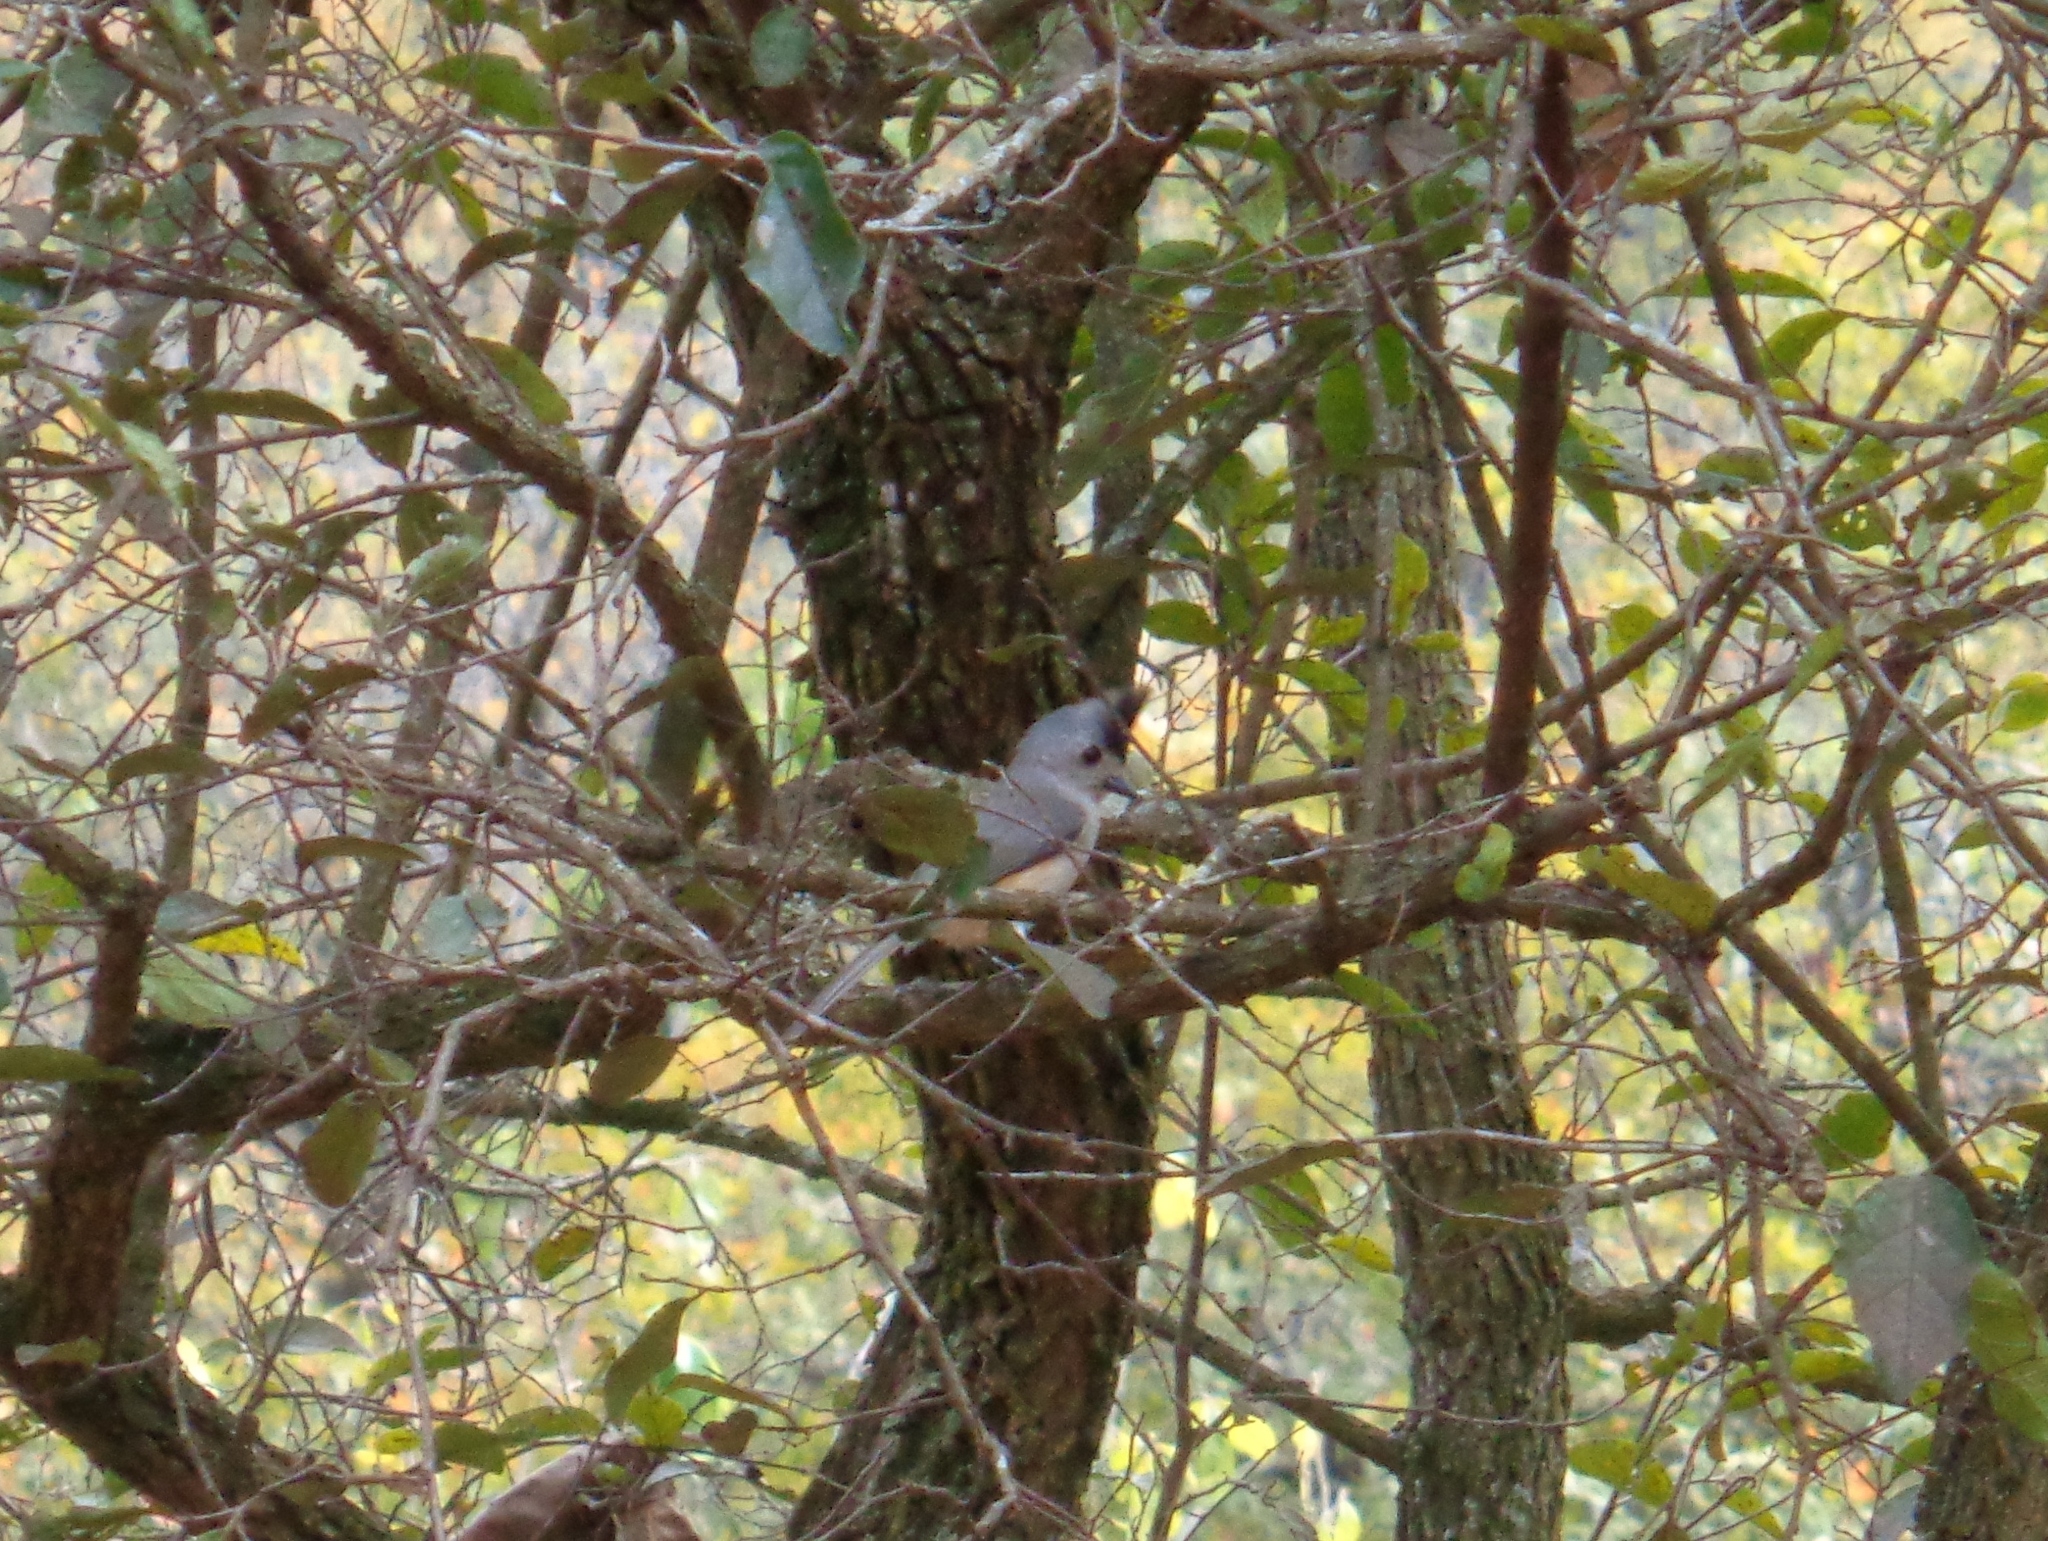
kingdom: Animalia
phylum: Chordata
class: Aves
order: Passeriformes
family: Paridae
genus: Baeolophus
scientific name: Baeolophus atricristatus
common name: Black-crested titmouse
